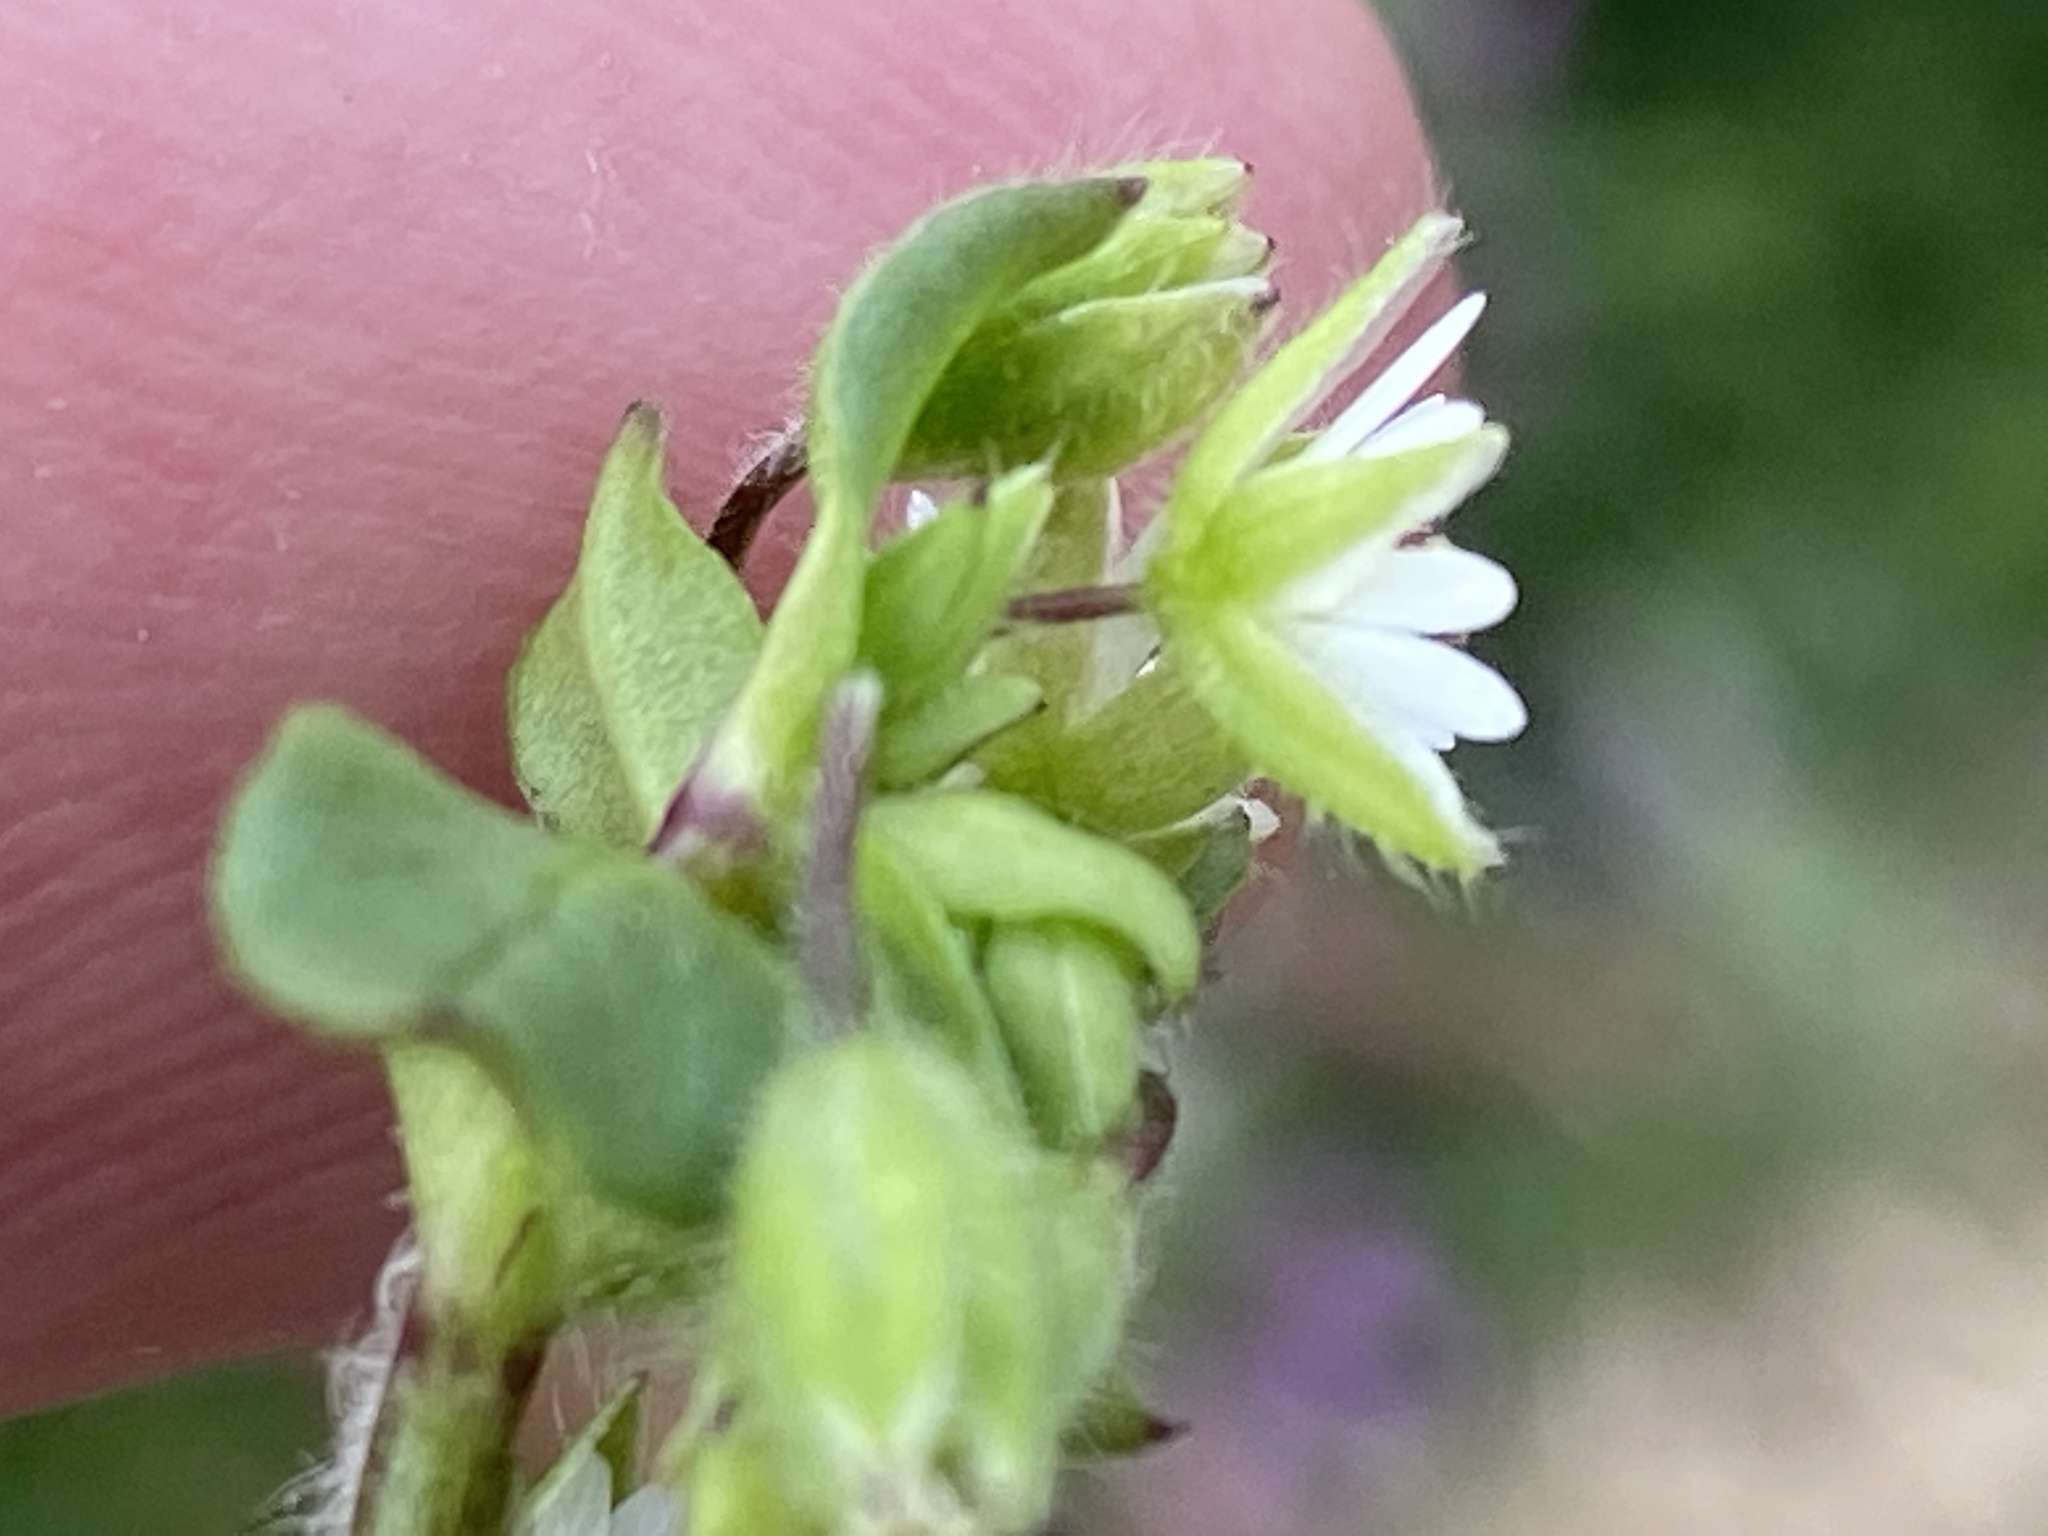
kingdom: Plantae
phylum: Tracheophyta
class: Magnoliopsida
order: Caryophyllales
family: Caryophyllaceae
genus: Stellaria
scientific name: Stellaria media
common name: Common chickweed
